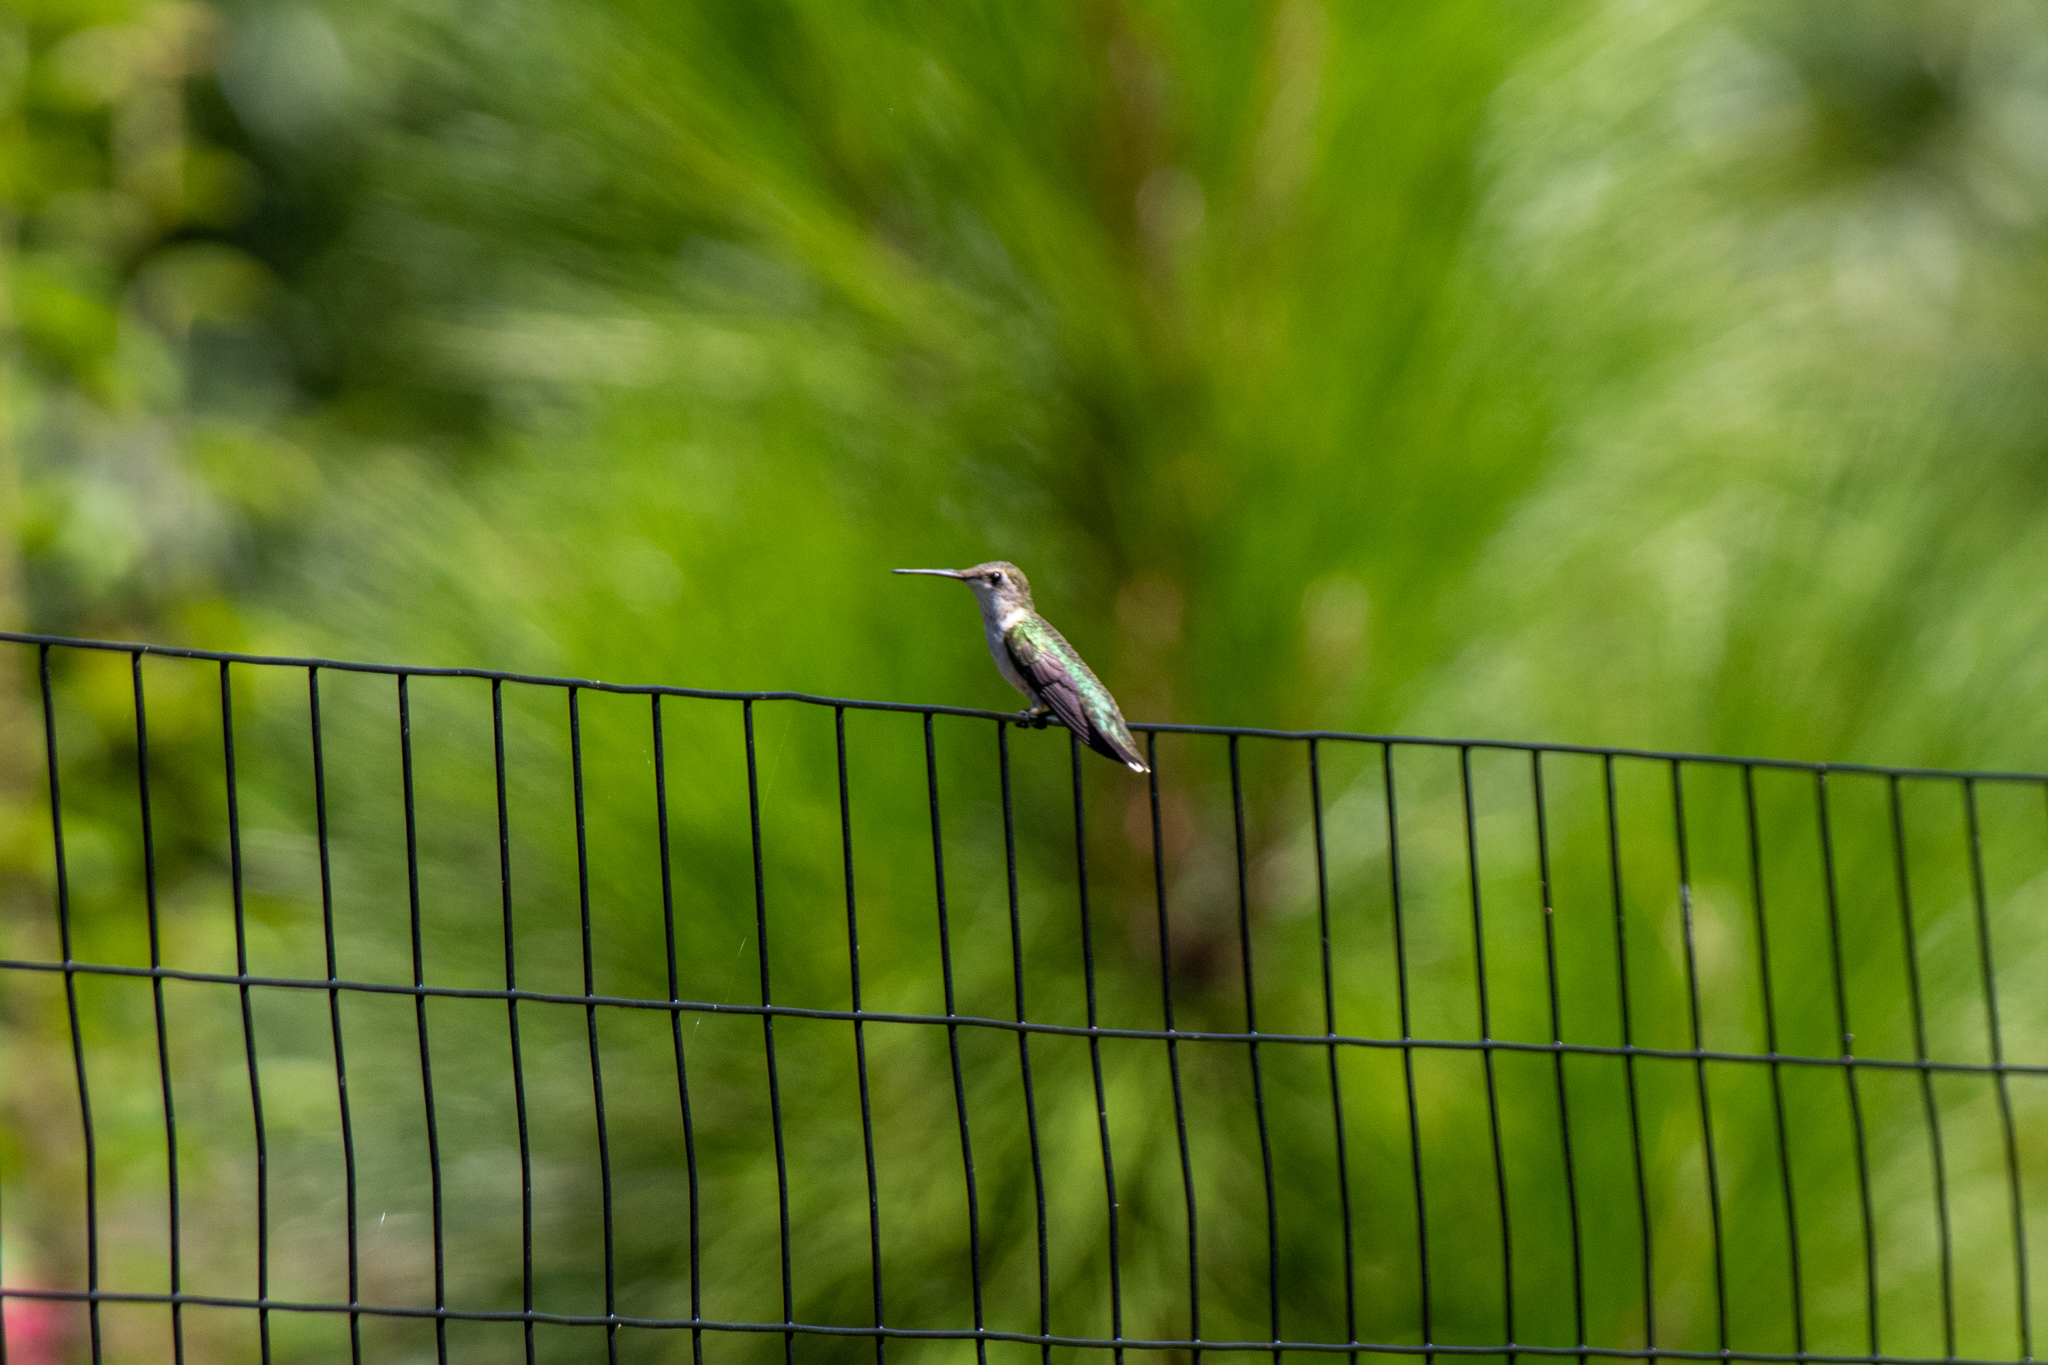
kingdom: Animalia
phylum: Chordata
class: Aves
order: Apodiformes
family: Trochilidae
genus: Archilochus
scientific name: Archilochus colubris
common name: Ruby-throated hummingbird
